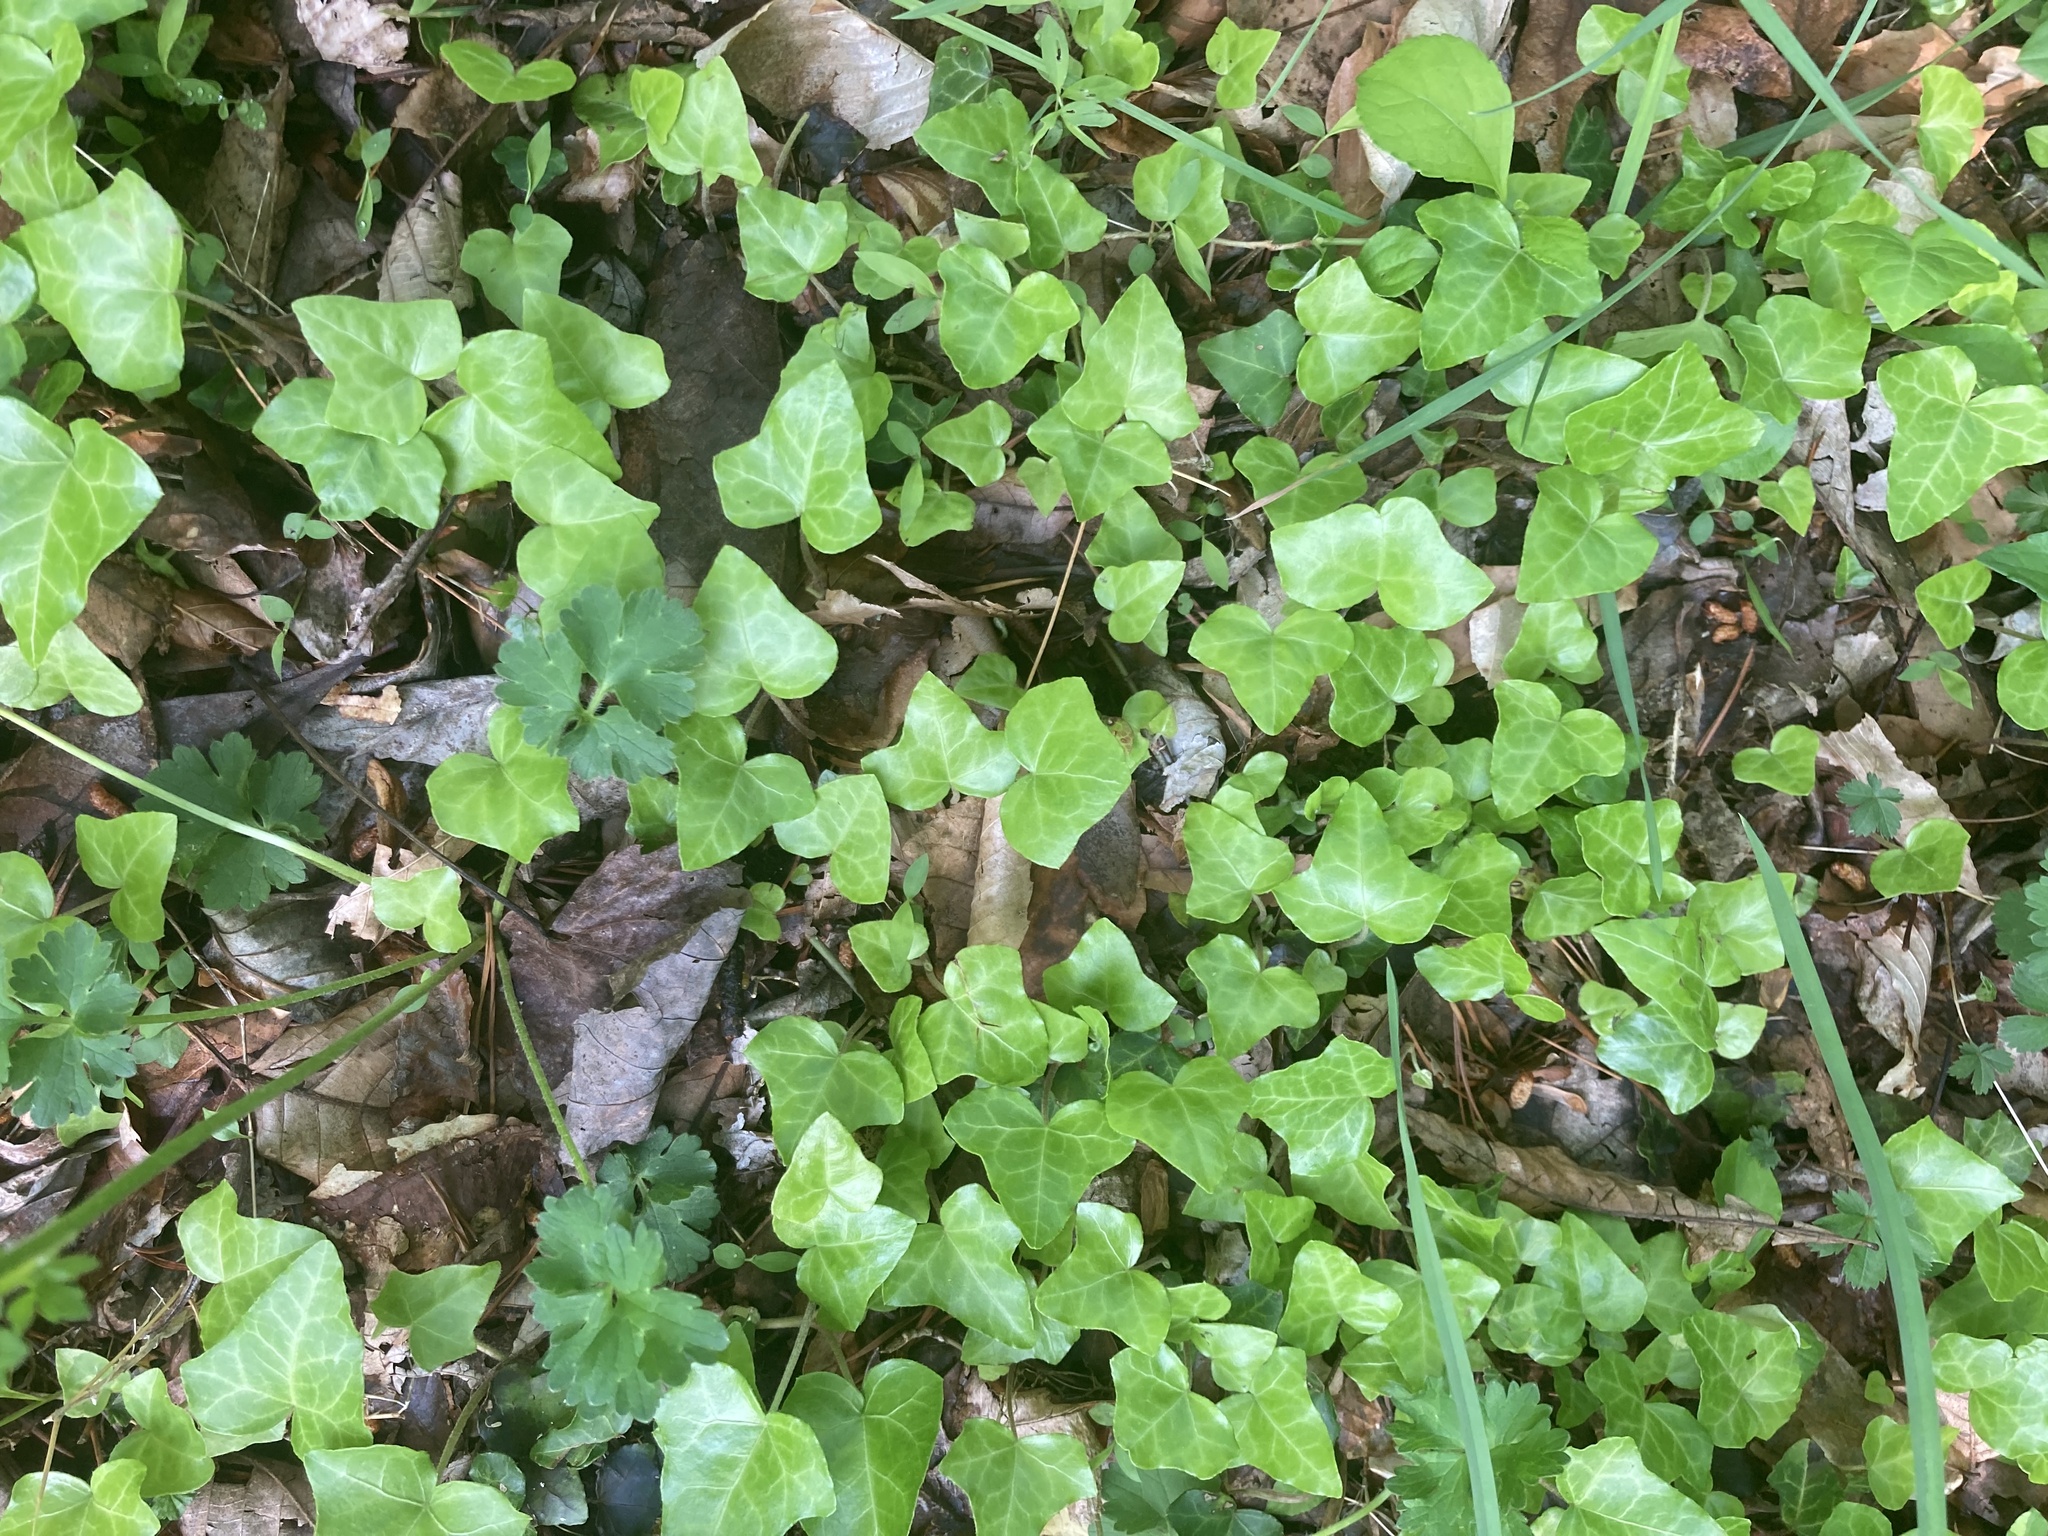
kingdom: Plantae
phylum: Tracheophyta
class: Magnoliopsida
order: Apiales
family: Araliaceae
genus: Hedera
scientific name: Hedera helix
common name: Ivy
